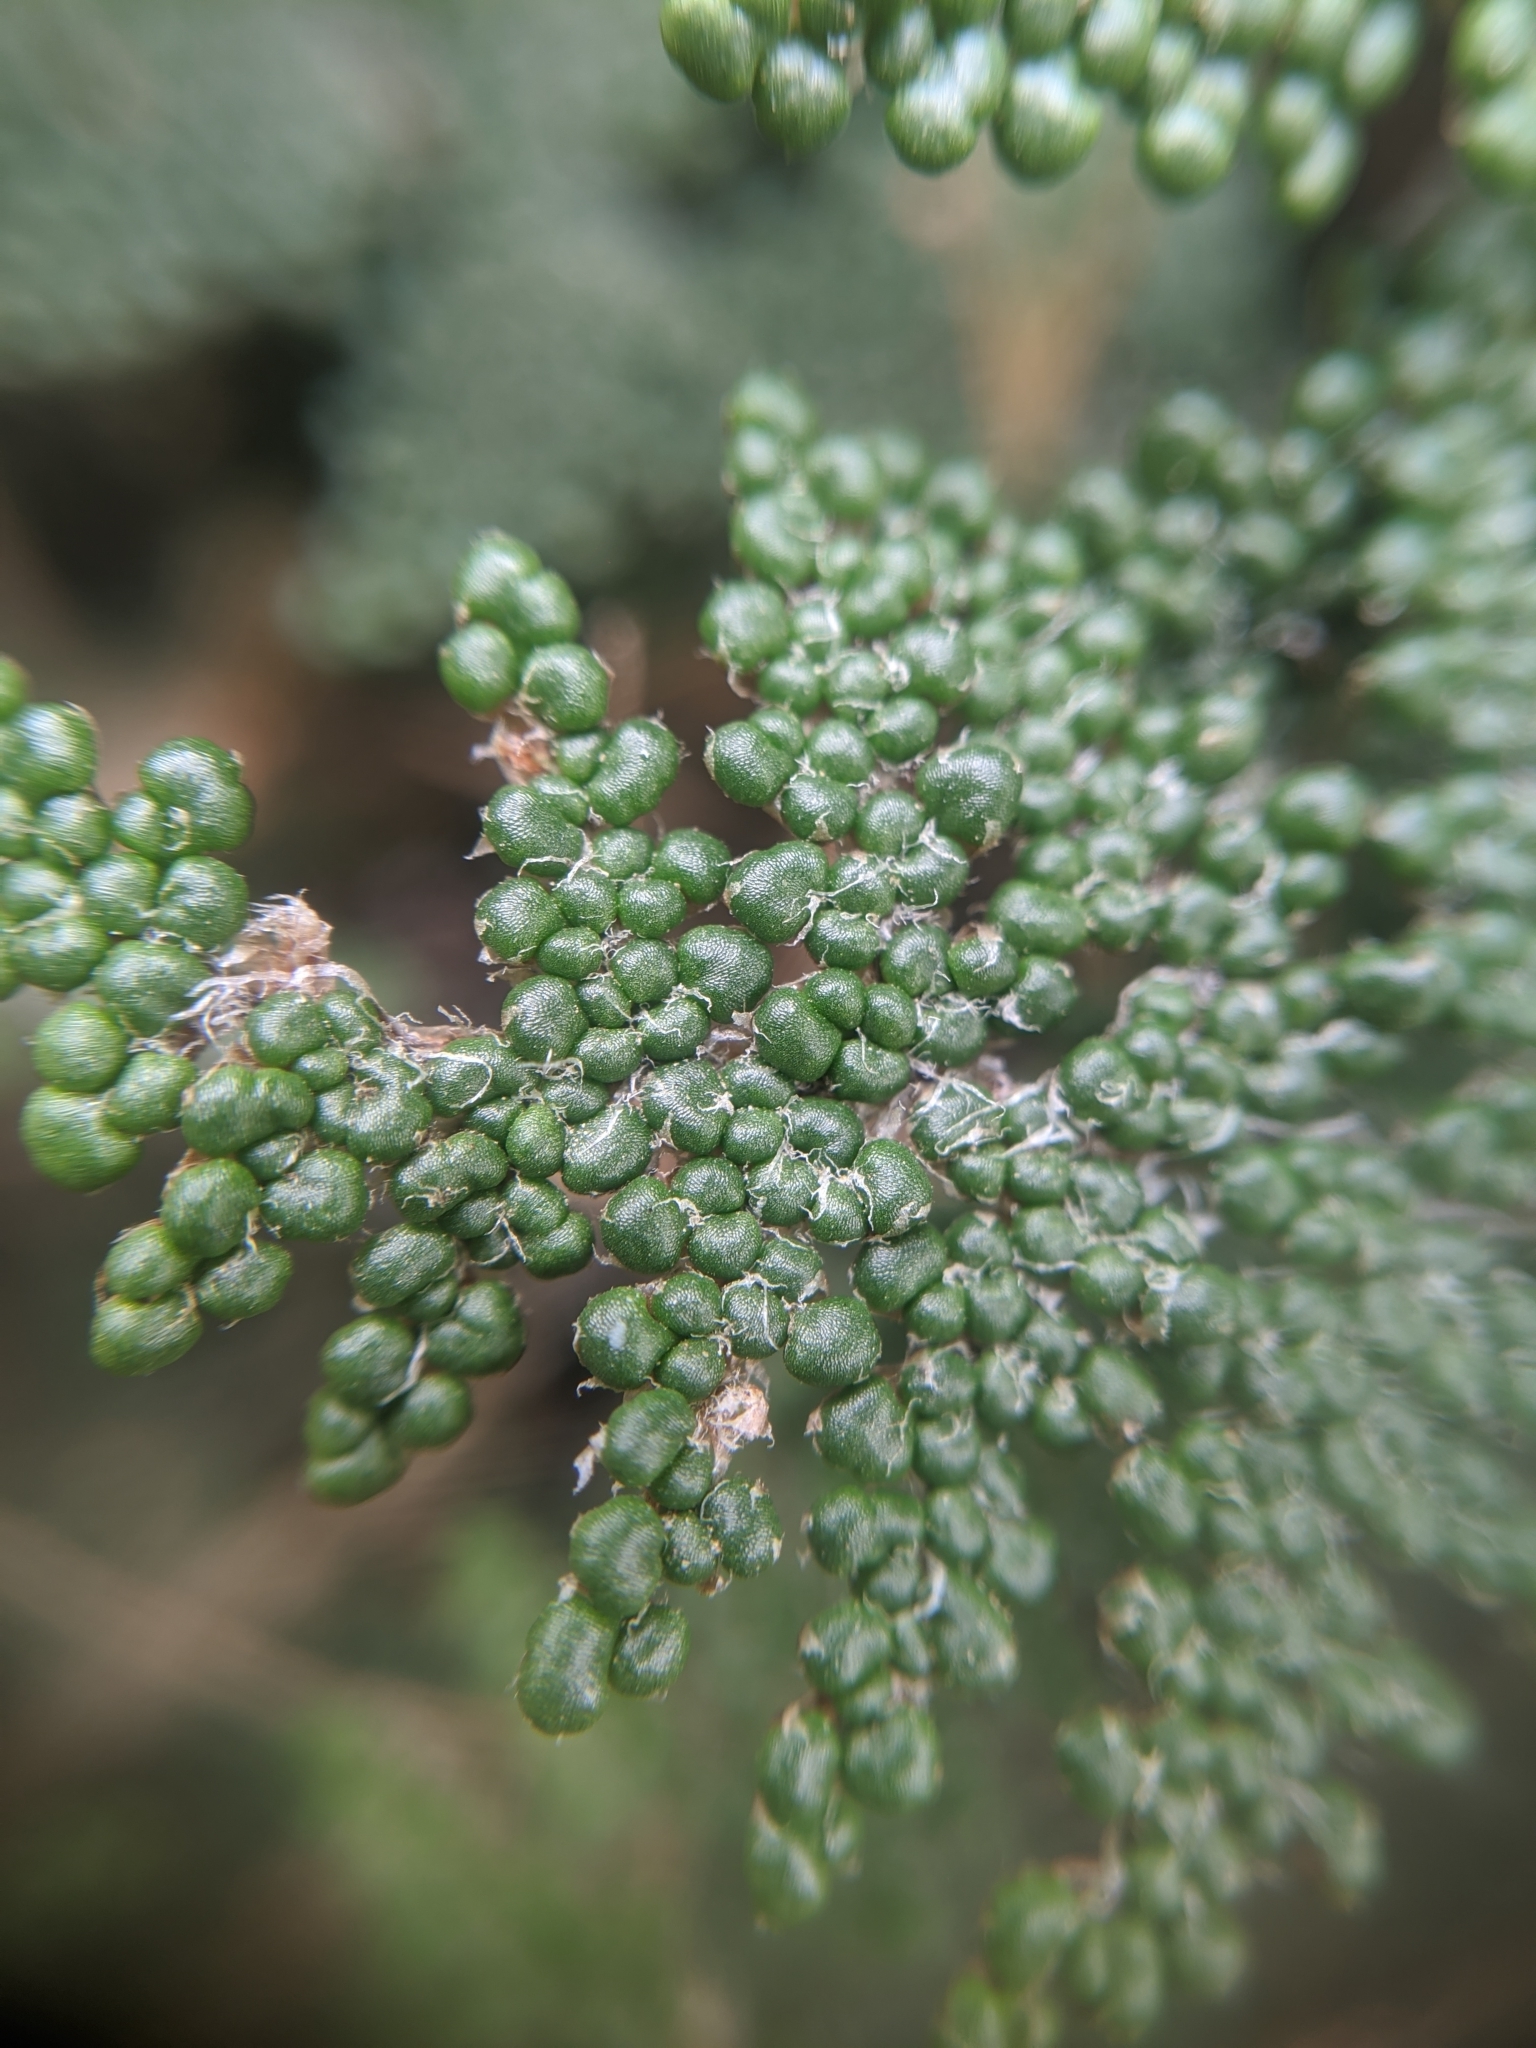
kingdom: Plantae
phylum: Tracheophyta
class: Polypodiopsida
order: Polypodiales
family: Pteridaceae
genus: Myriopteris
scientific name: Myriopteris covillei
